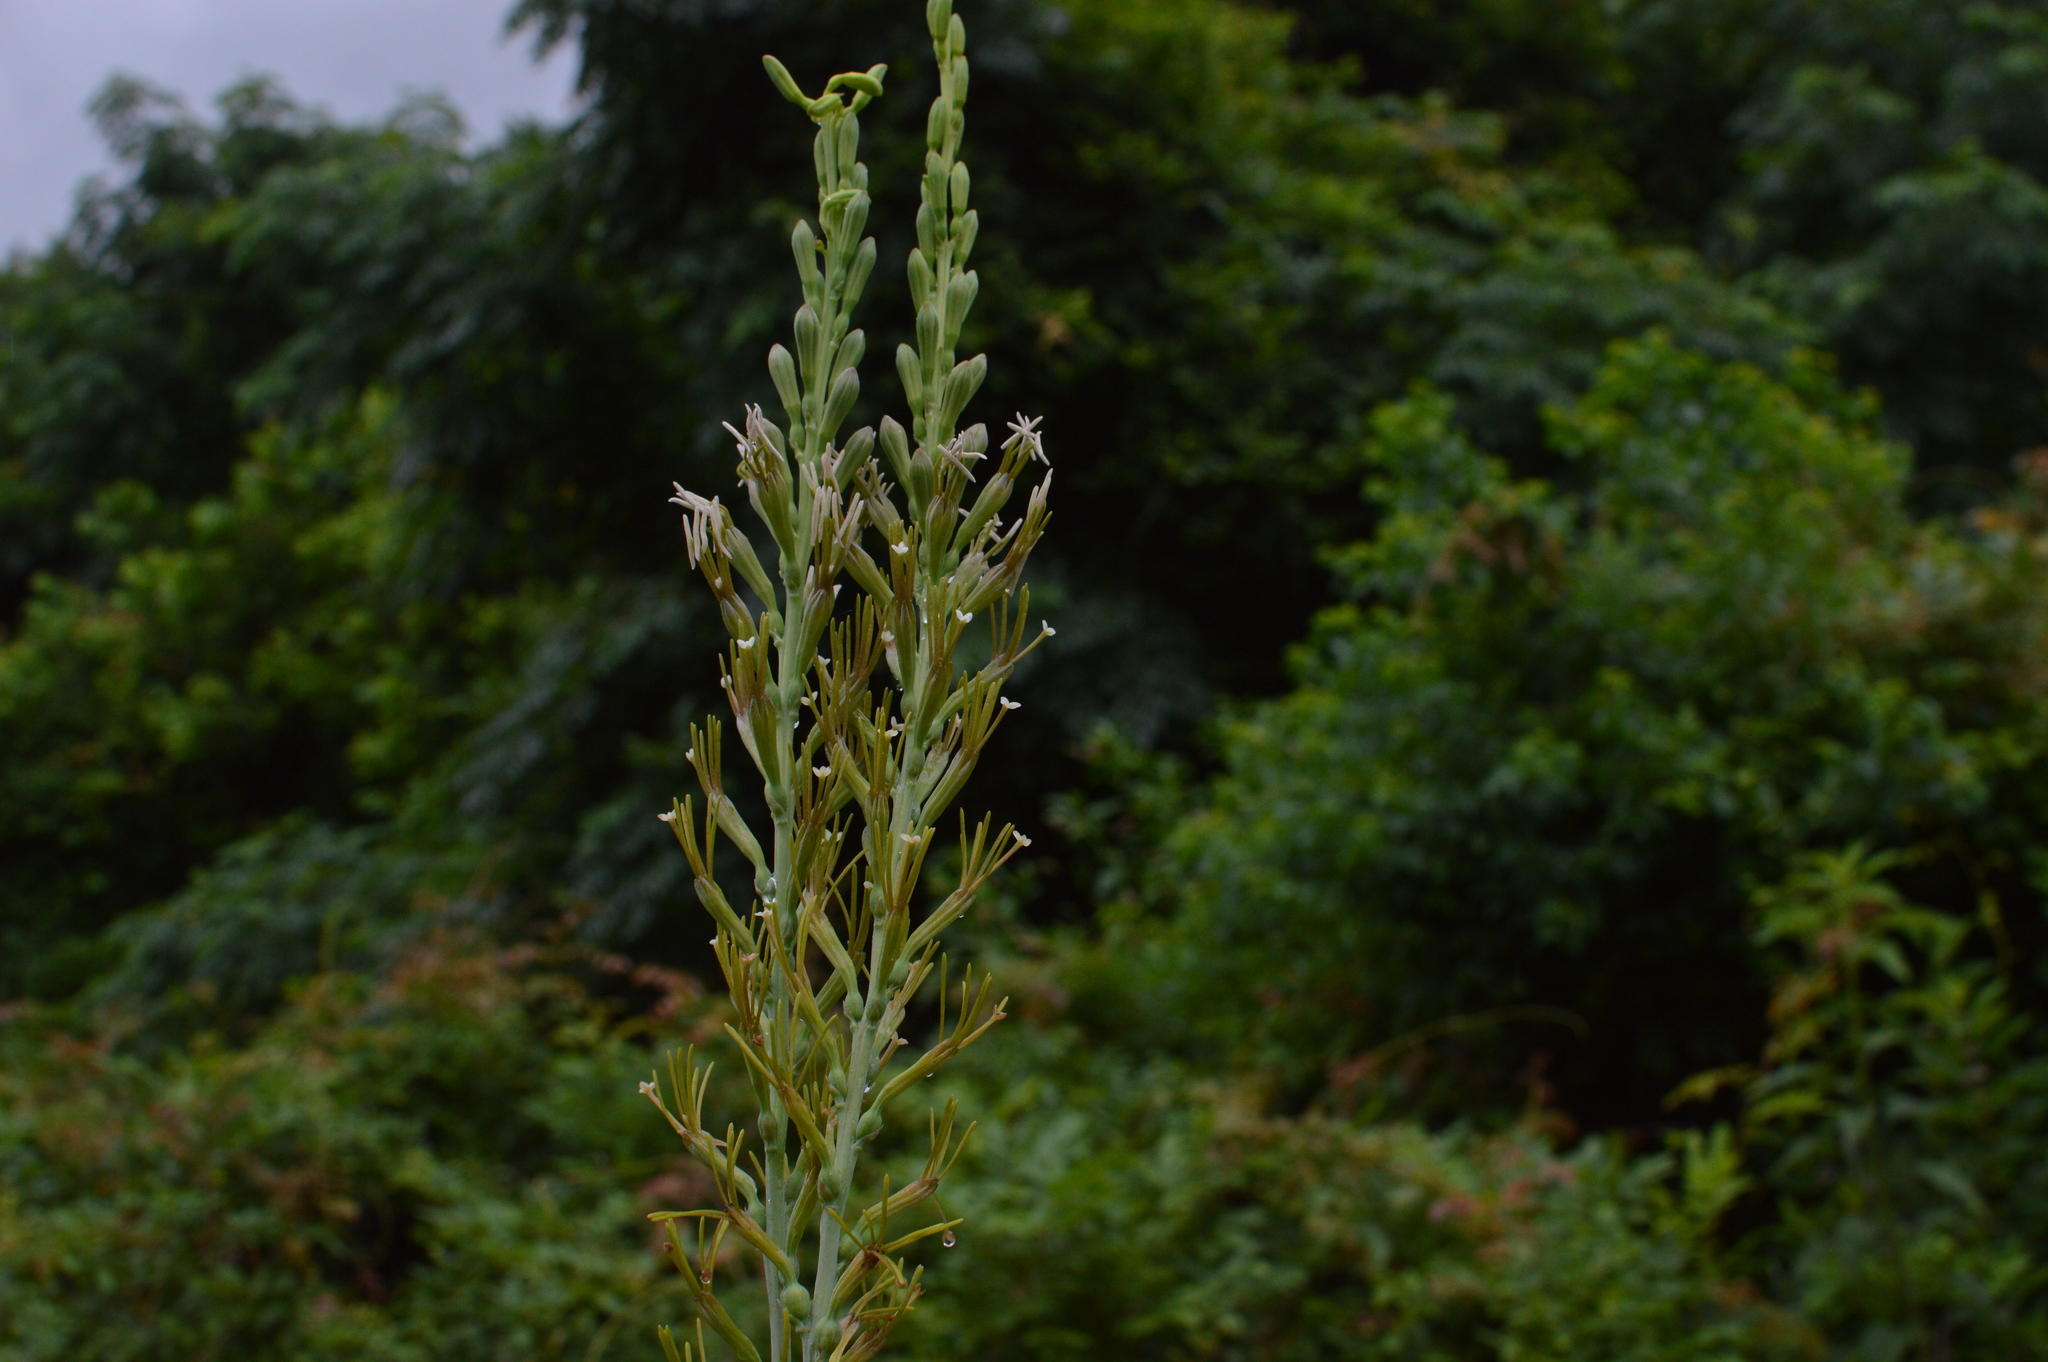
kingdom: Plantae
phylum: Tracheophyta
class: Liliopsida
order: Asparagales
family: Asparagaceae
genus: Agave
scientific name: Agave virginica
